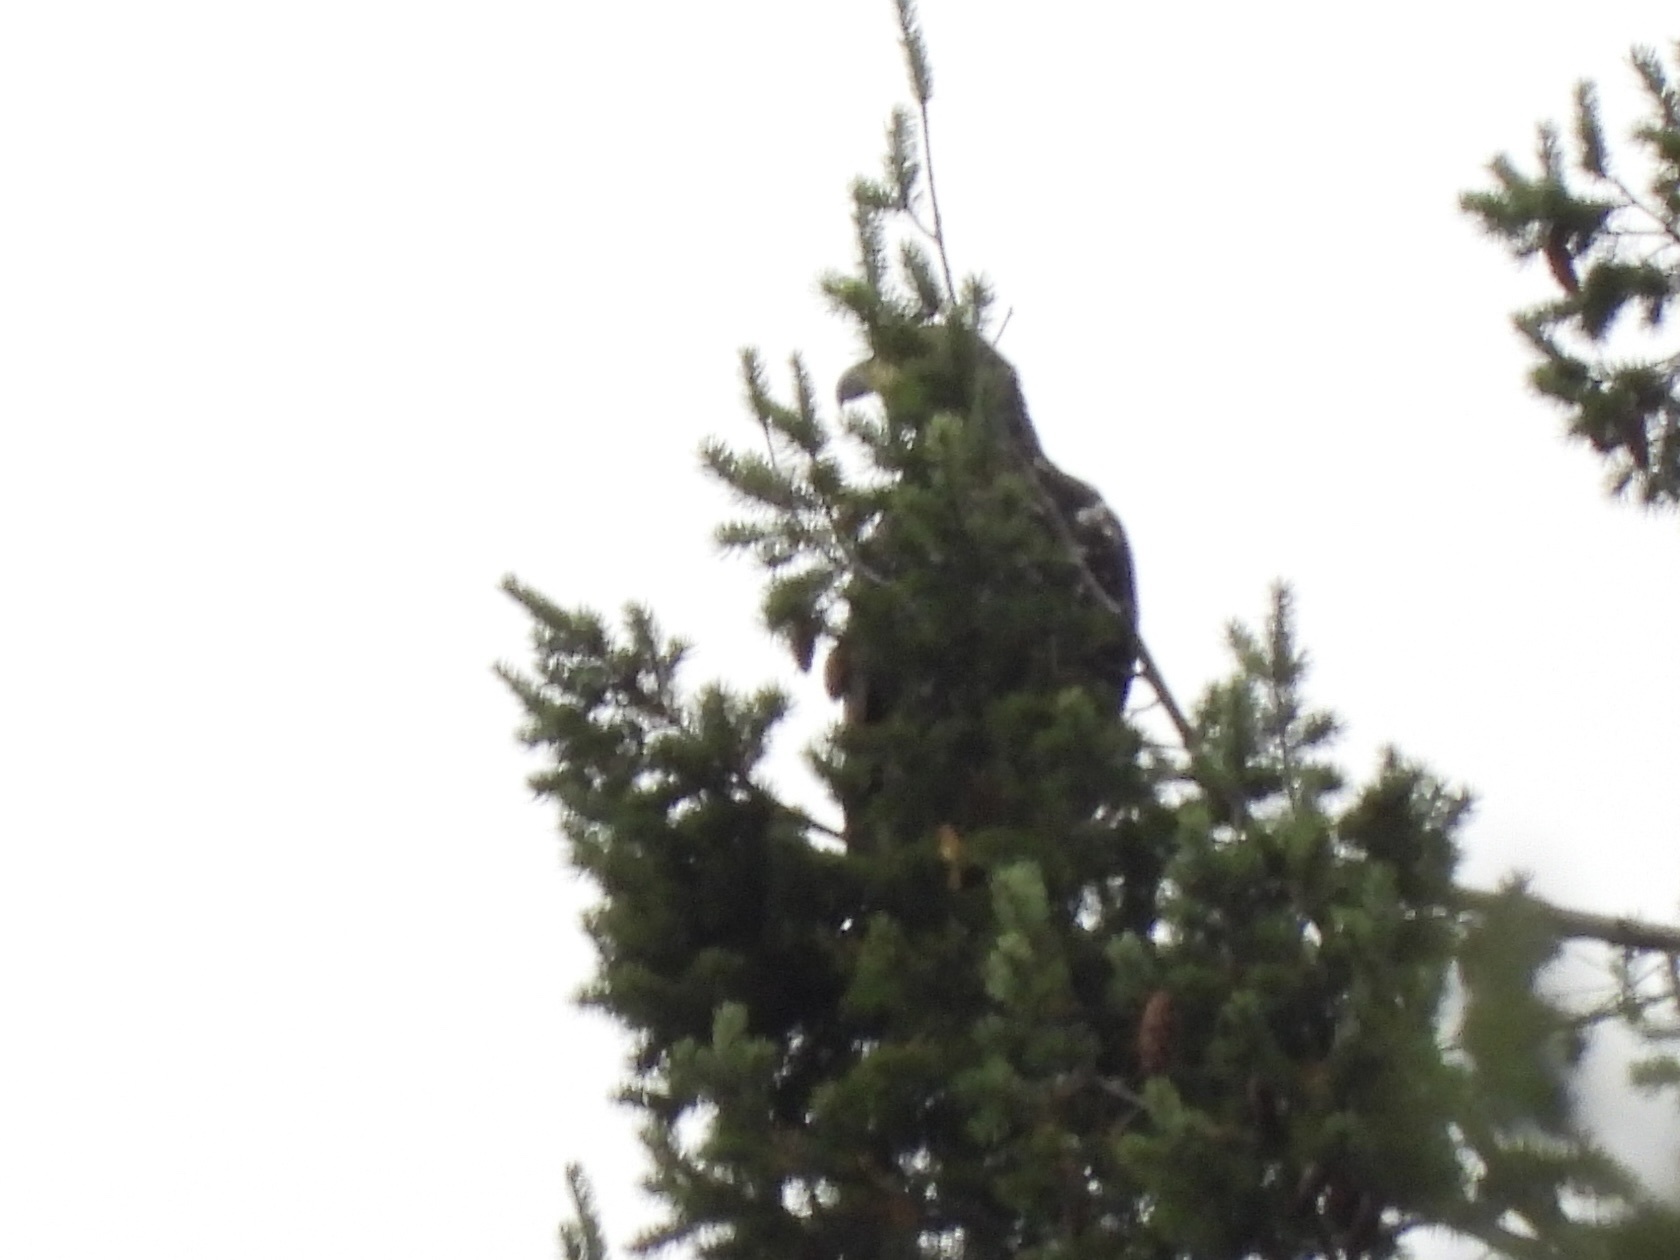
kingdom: Animalia
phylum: Chordata
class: Aves
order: Accipitriformes
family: Accipitridae
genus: Haliaeetus
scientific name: Haliaeetus leucocephalus
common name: Bald eagle
